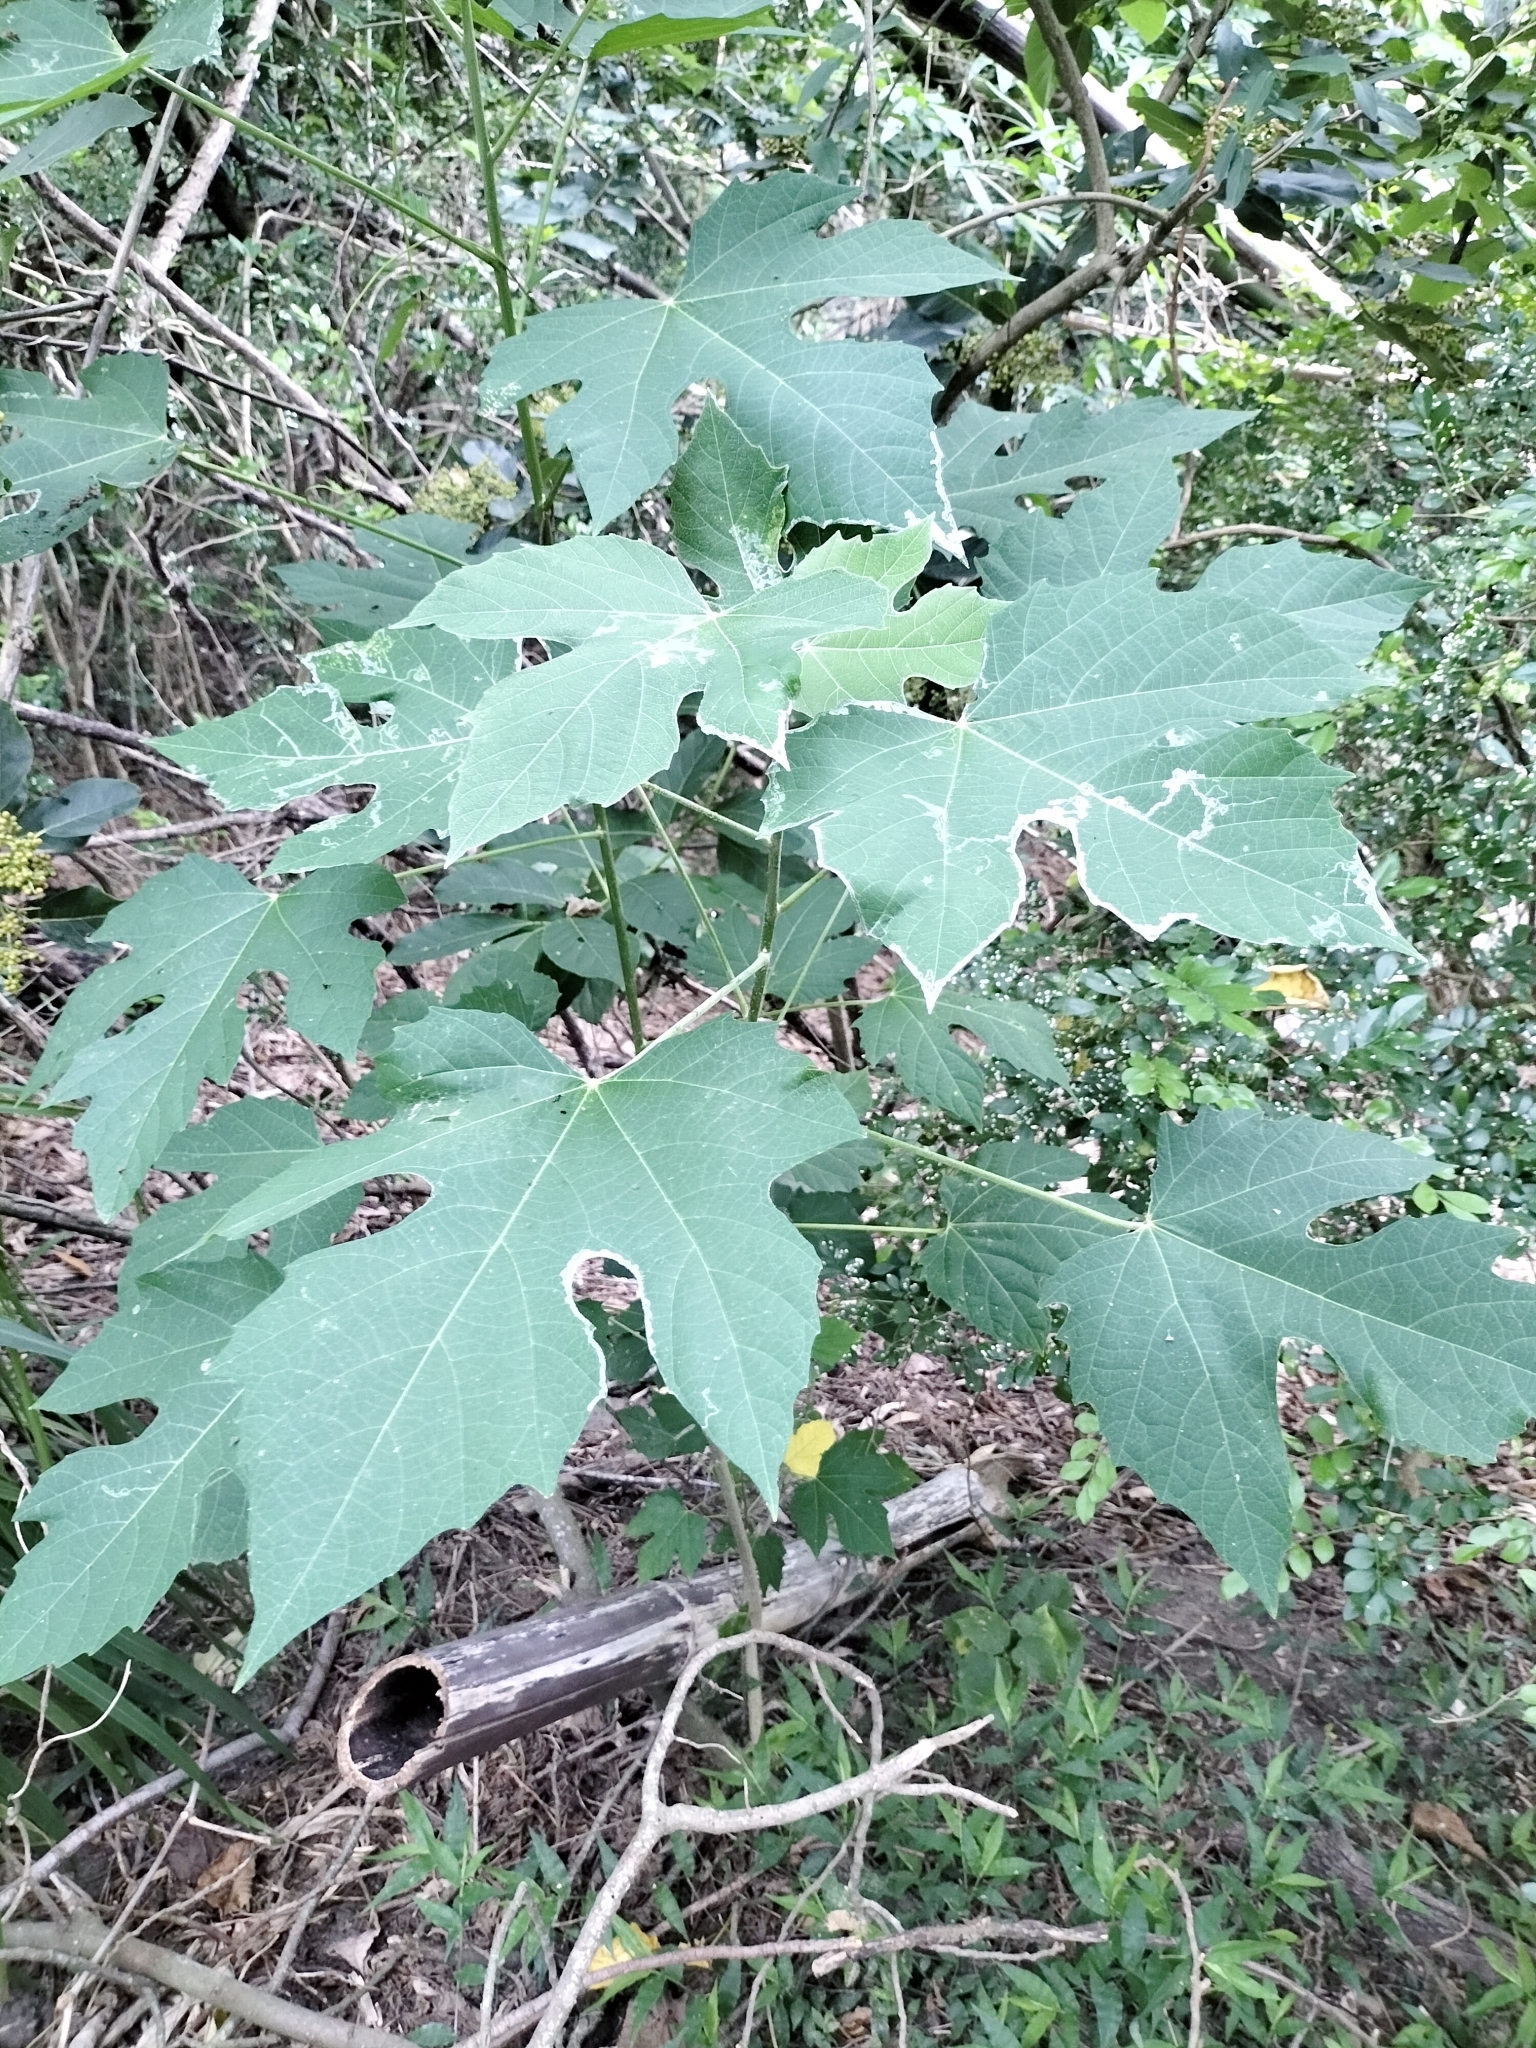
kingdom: Plantae
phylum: Tracheophyta
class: Magnoliopsida
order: Malpighiales
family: Euphorbiaceae
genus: Melanolepis
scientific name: Melanolepis multiglandulosa
